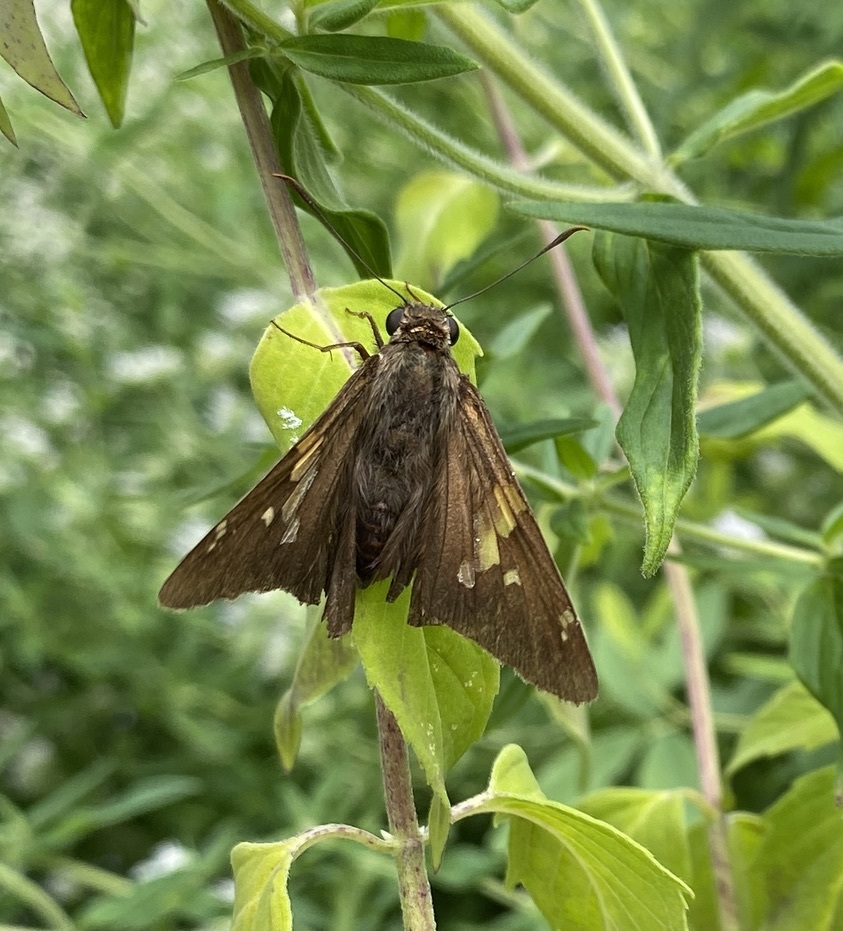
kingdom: Animalia
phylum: Arthropoda
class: Insecta
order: Lepidoptera
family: Hesperiidae
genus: Epargyreus
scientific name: Epargyreus clarus
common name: Silver-spotted skipper
